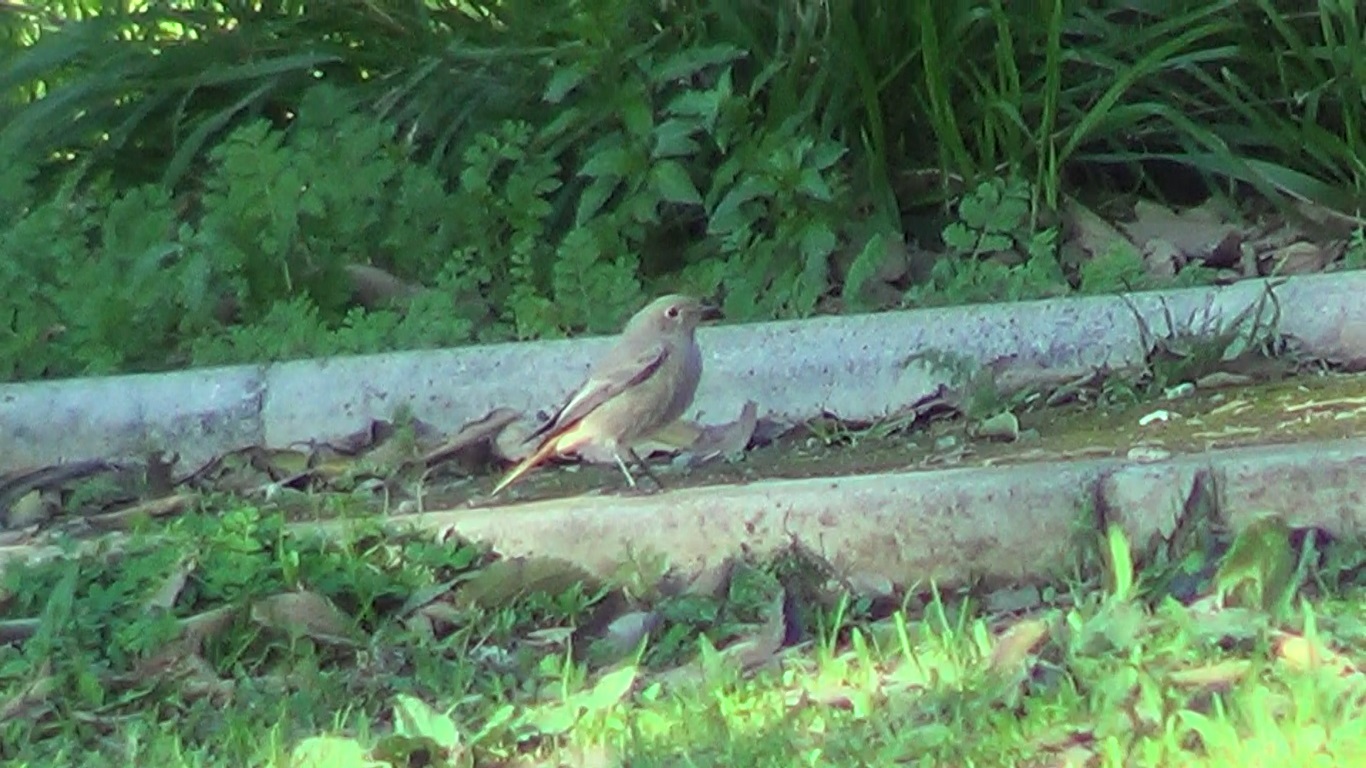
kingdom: Animalia
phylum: Chordata
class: Aves
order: Passeriformes
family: Muscicapidae
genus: Phoenicurus
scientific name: Phoenicurus ochruros
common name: Black redstart
